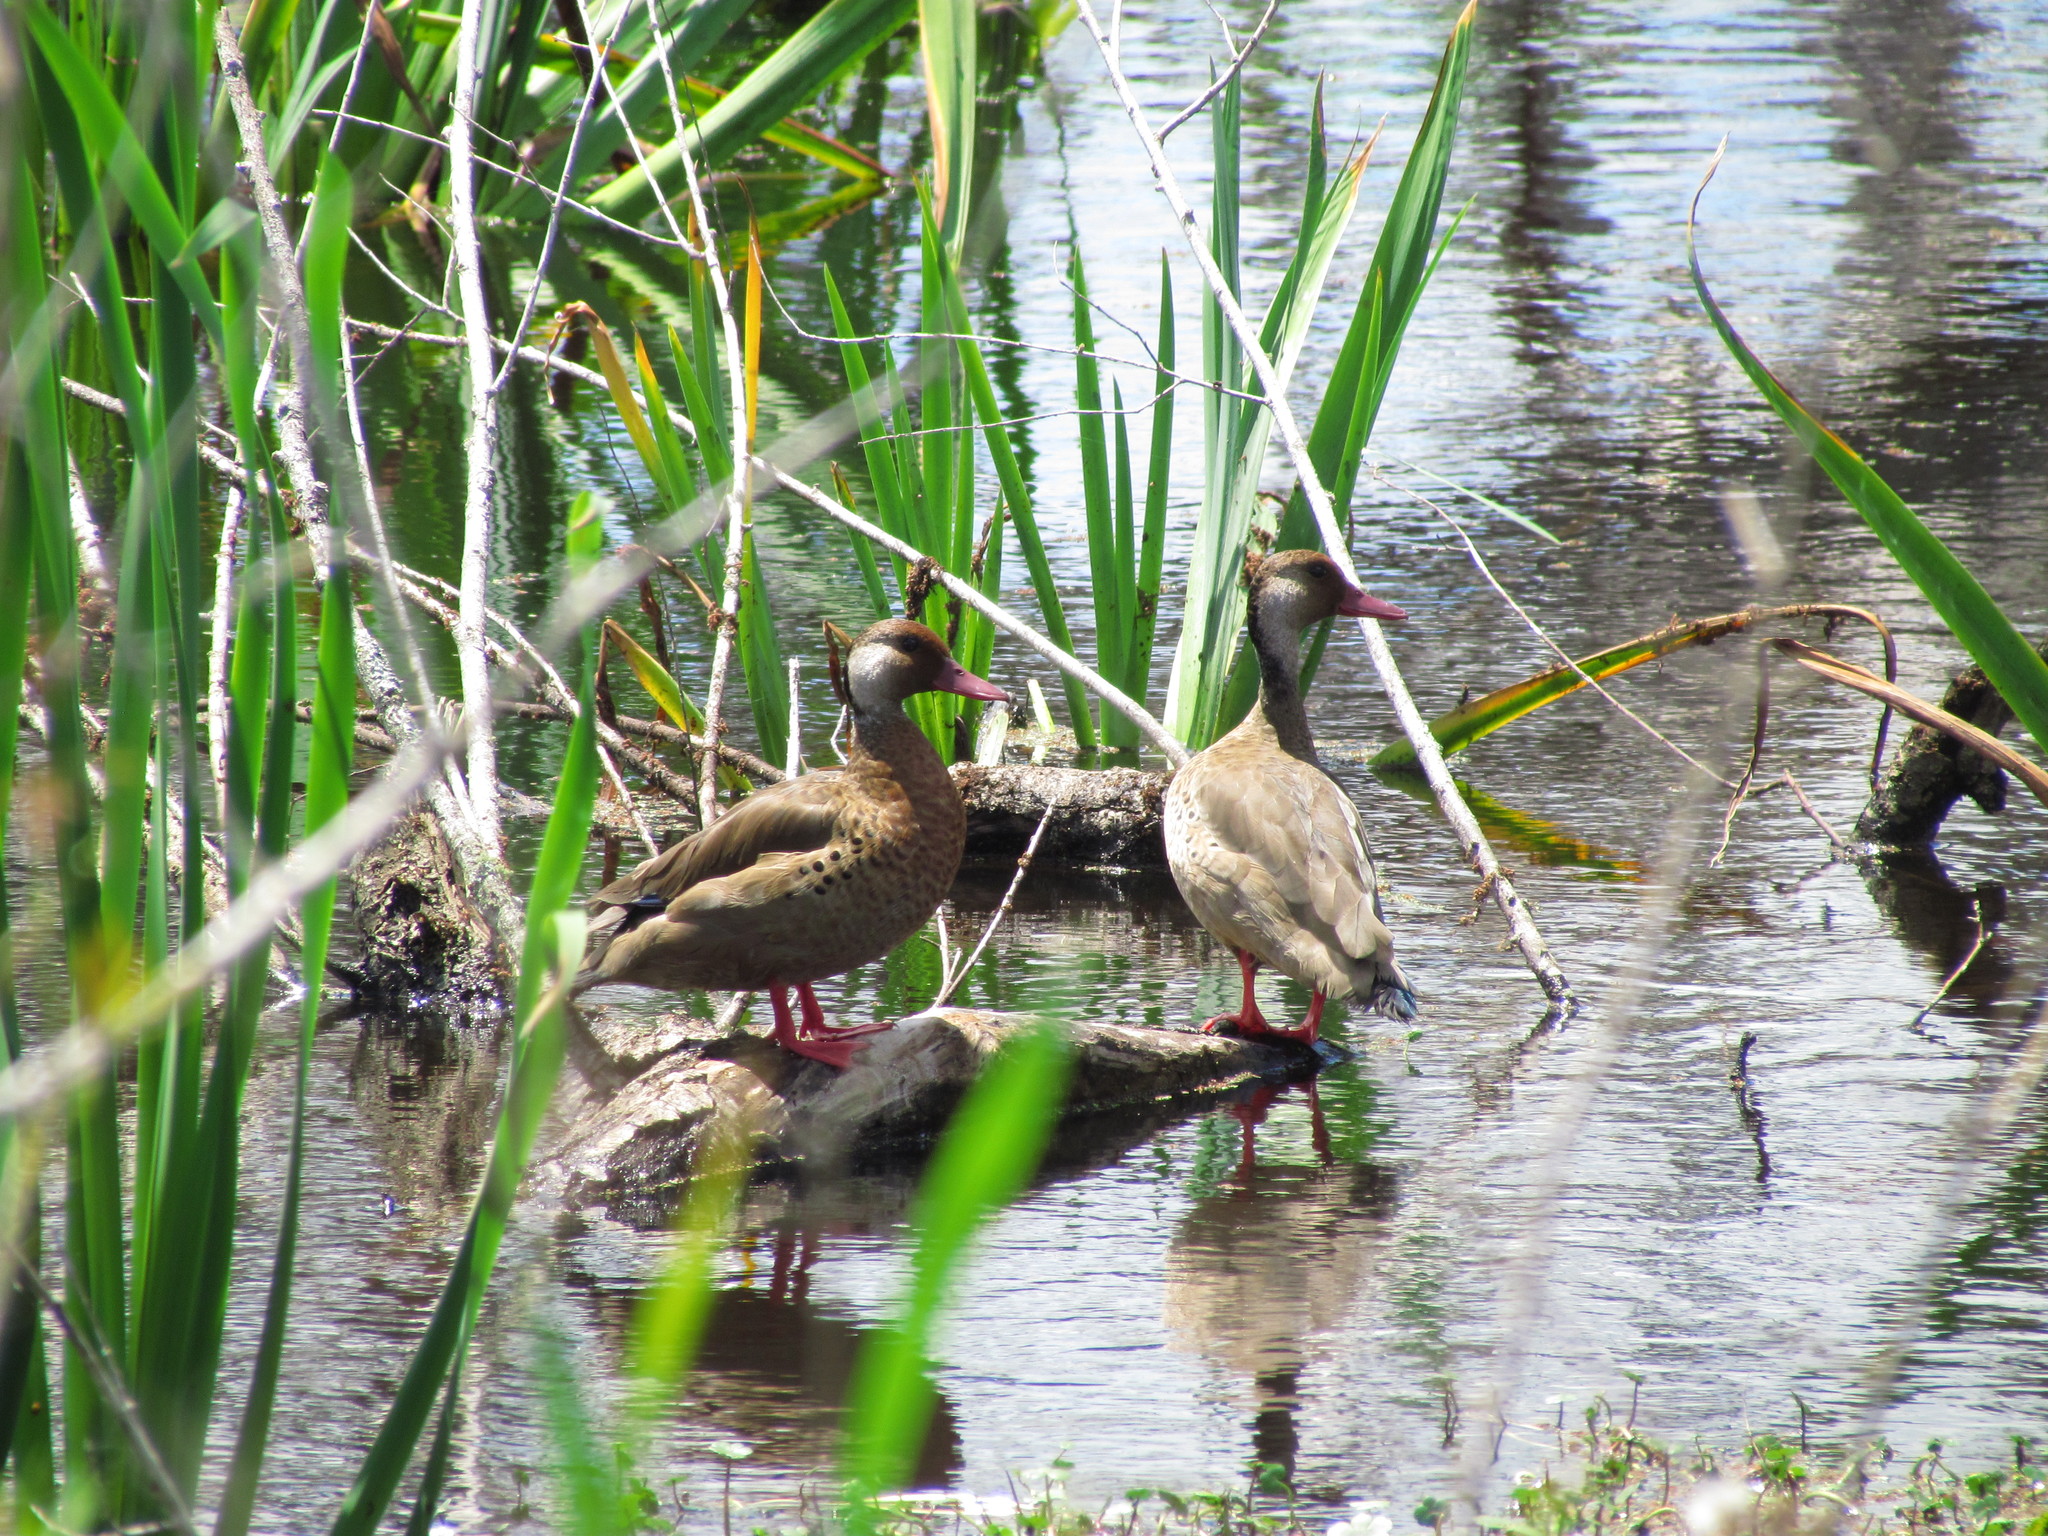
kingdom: Animalia
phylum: Chordata
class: Aves
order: Anseriformes
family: Anatidae
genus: Amazonetta
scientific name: Amazonetta brasiliensis
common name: Brazilian teal
